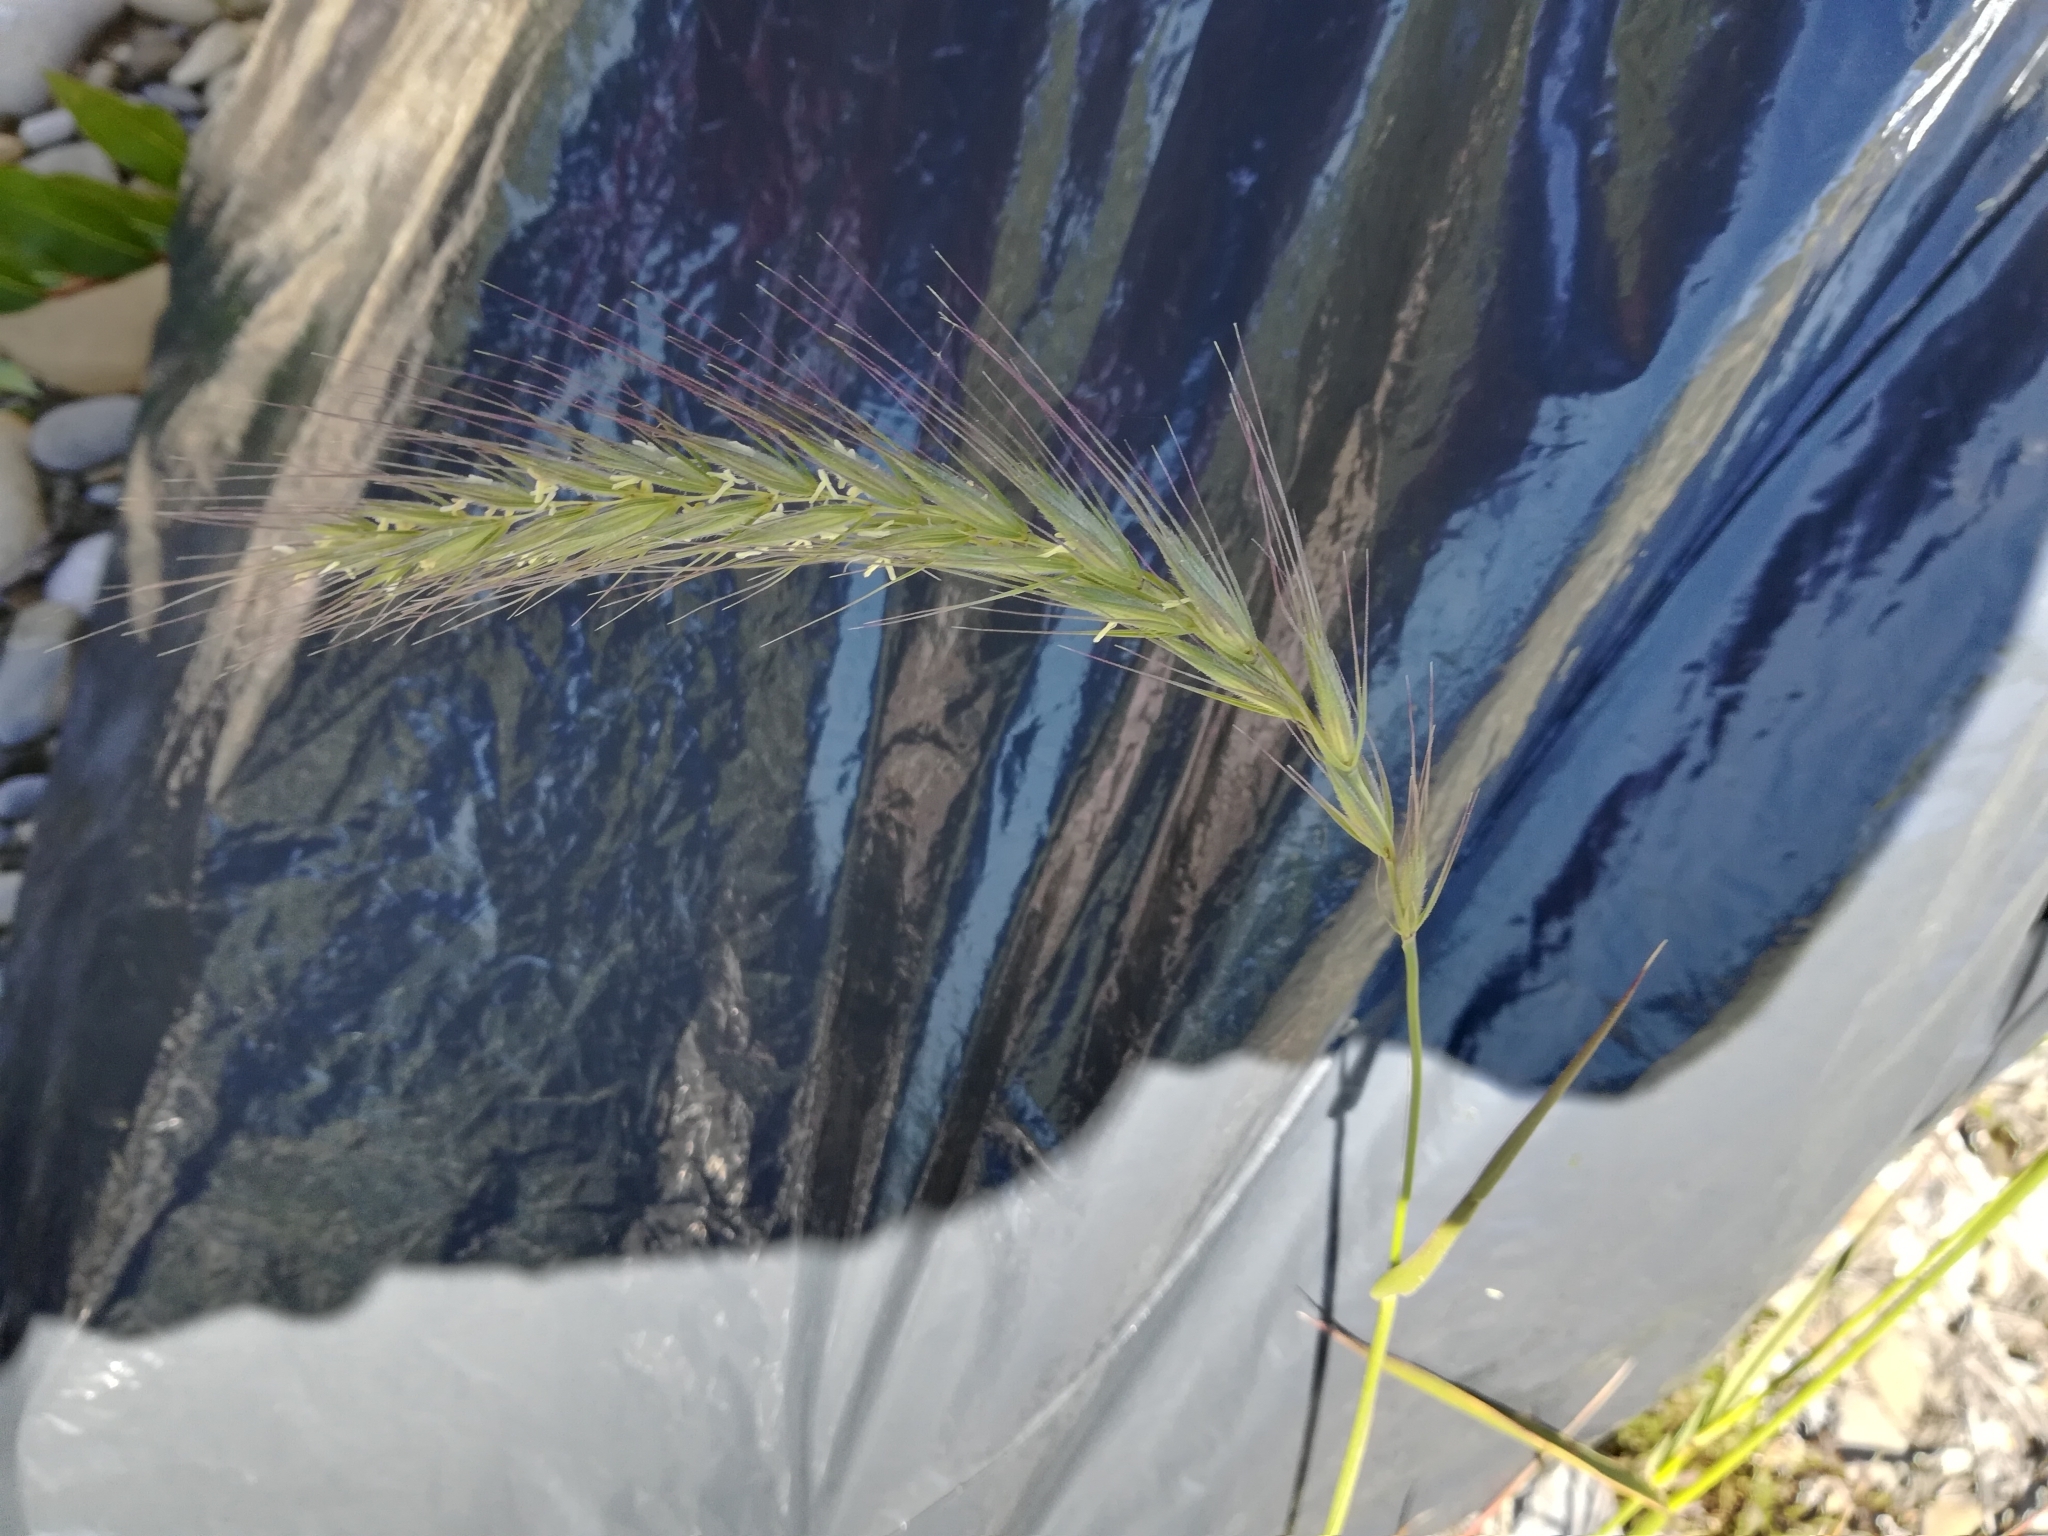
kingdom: Plantae
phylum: Tracheophyta
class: Liliopsida
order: Poales
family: Poaceae
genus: Elymus
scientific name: Elymus canadensis
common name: Canada wild rye
